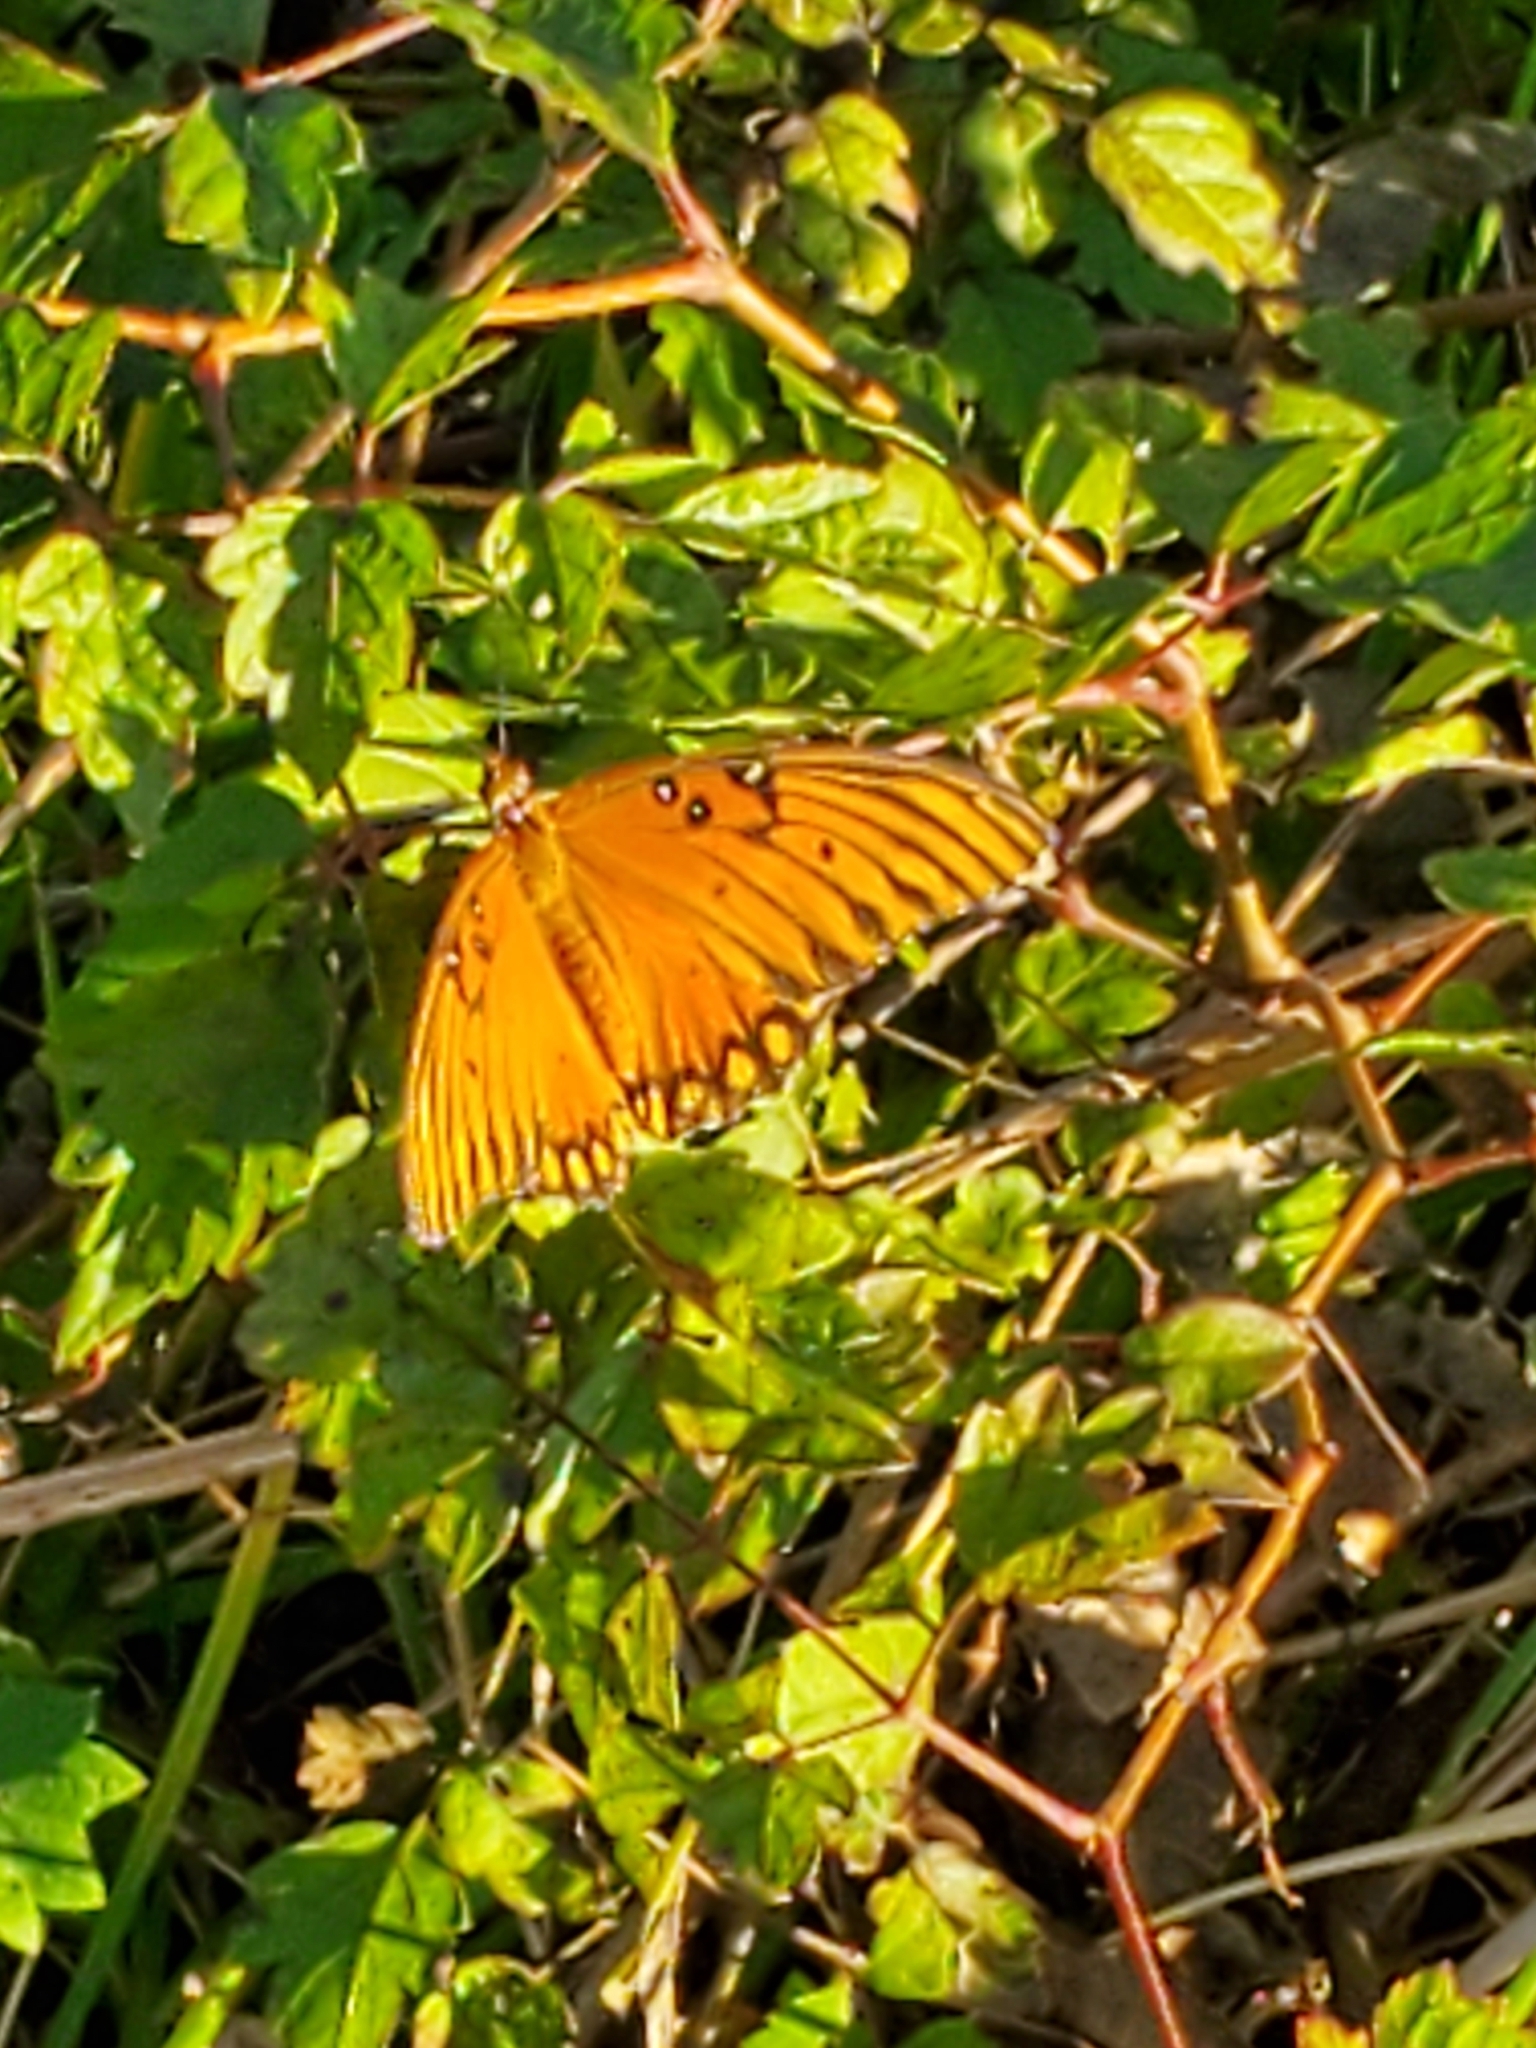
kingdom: Animalia
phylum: Arthropoda
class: Insecta
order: Lepidoptera
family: Nymphalidae
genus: Dione
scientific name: Dione vanillae
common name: Gulf fritillary
